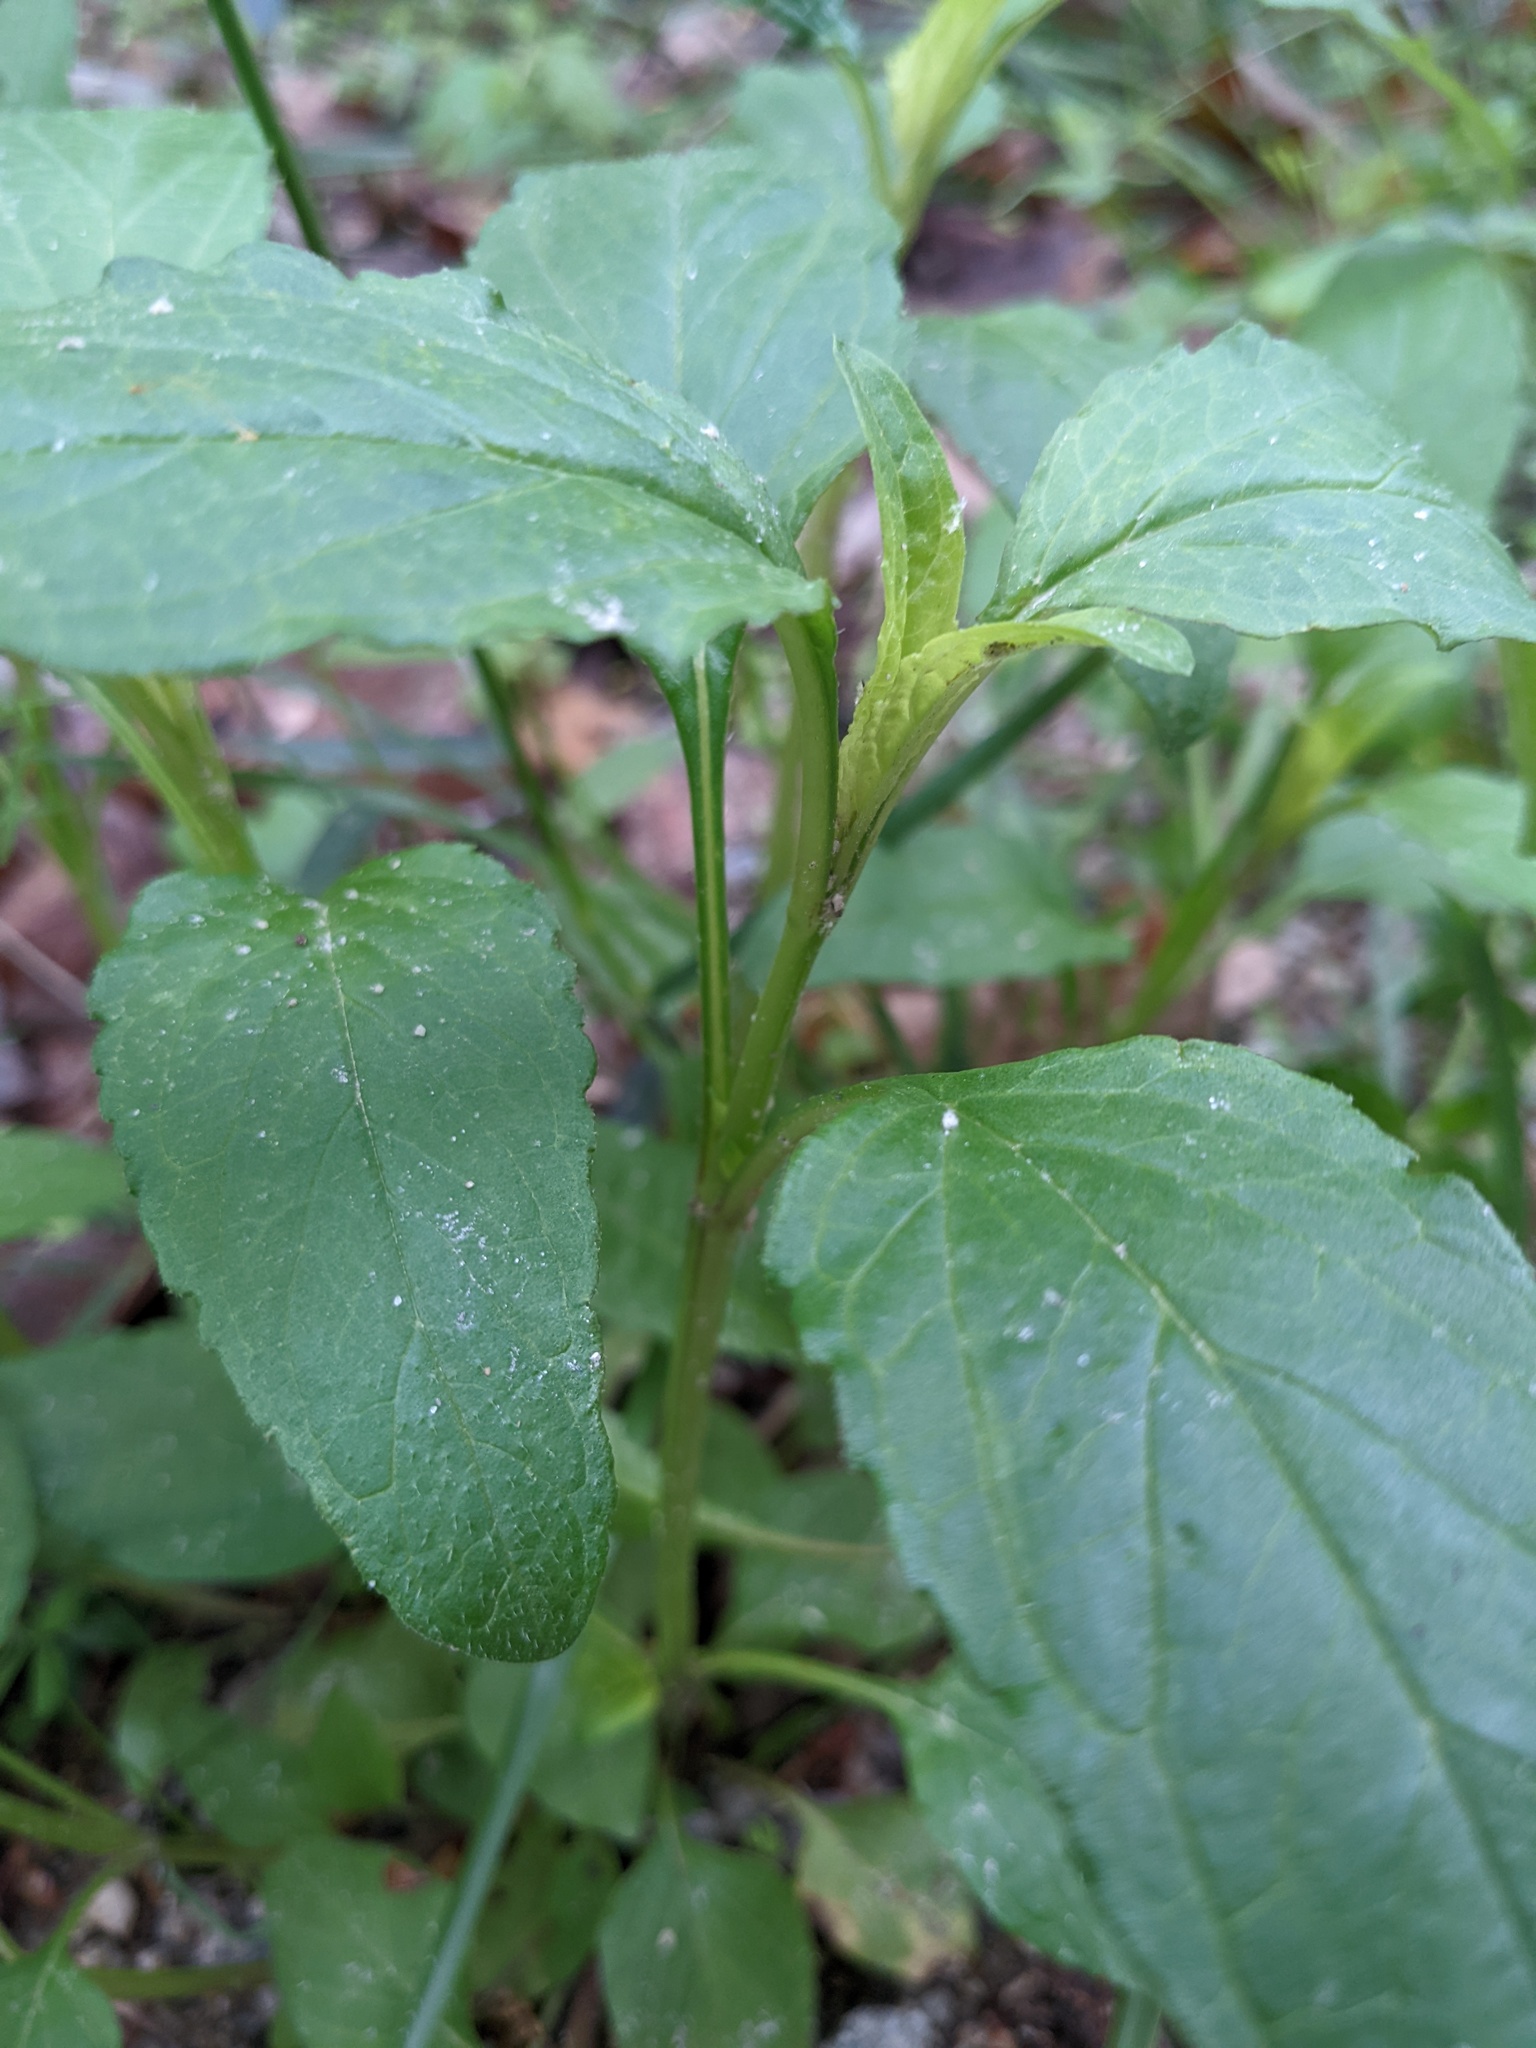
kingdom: Plantae
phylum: Tracheophyta
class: Magnoliopsida
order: Lamiales
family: Lamiaceae
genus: Prunella
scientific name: Prunella vulgaris
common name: Heal-all
